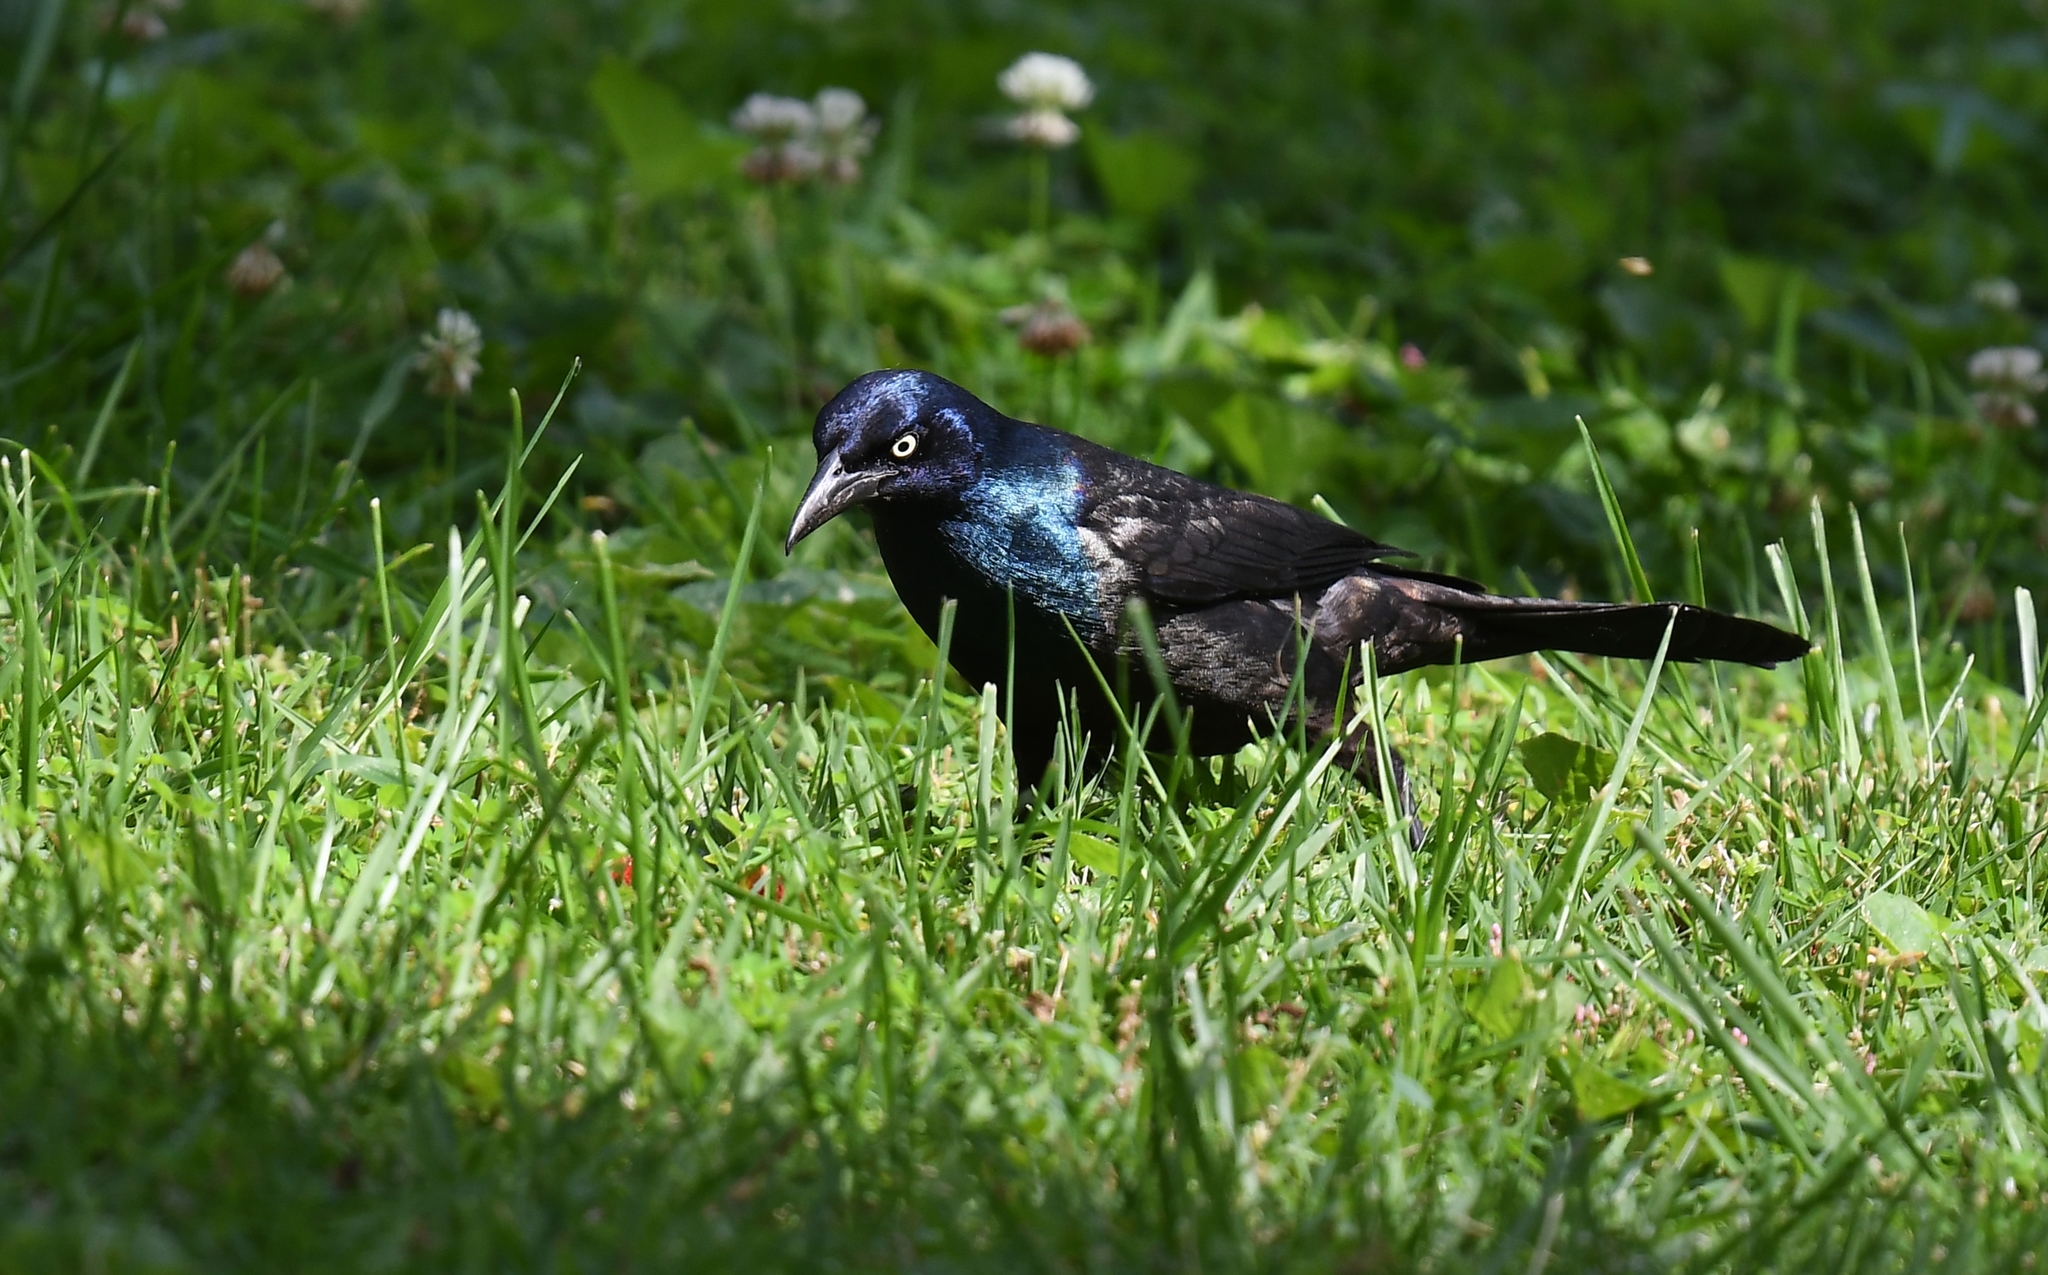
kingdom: Animalia
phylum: Chordata
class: Aves
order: Passeriformes
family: Icteridae
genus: Quiscalus
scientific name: Quiscalus quiscula
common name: Common grackle
